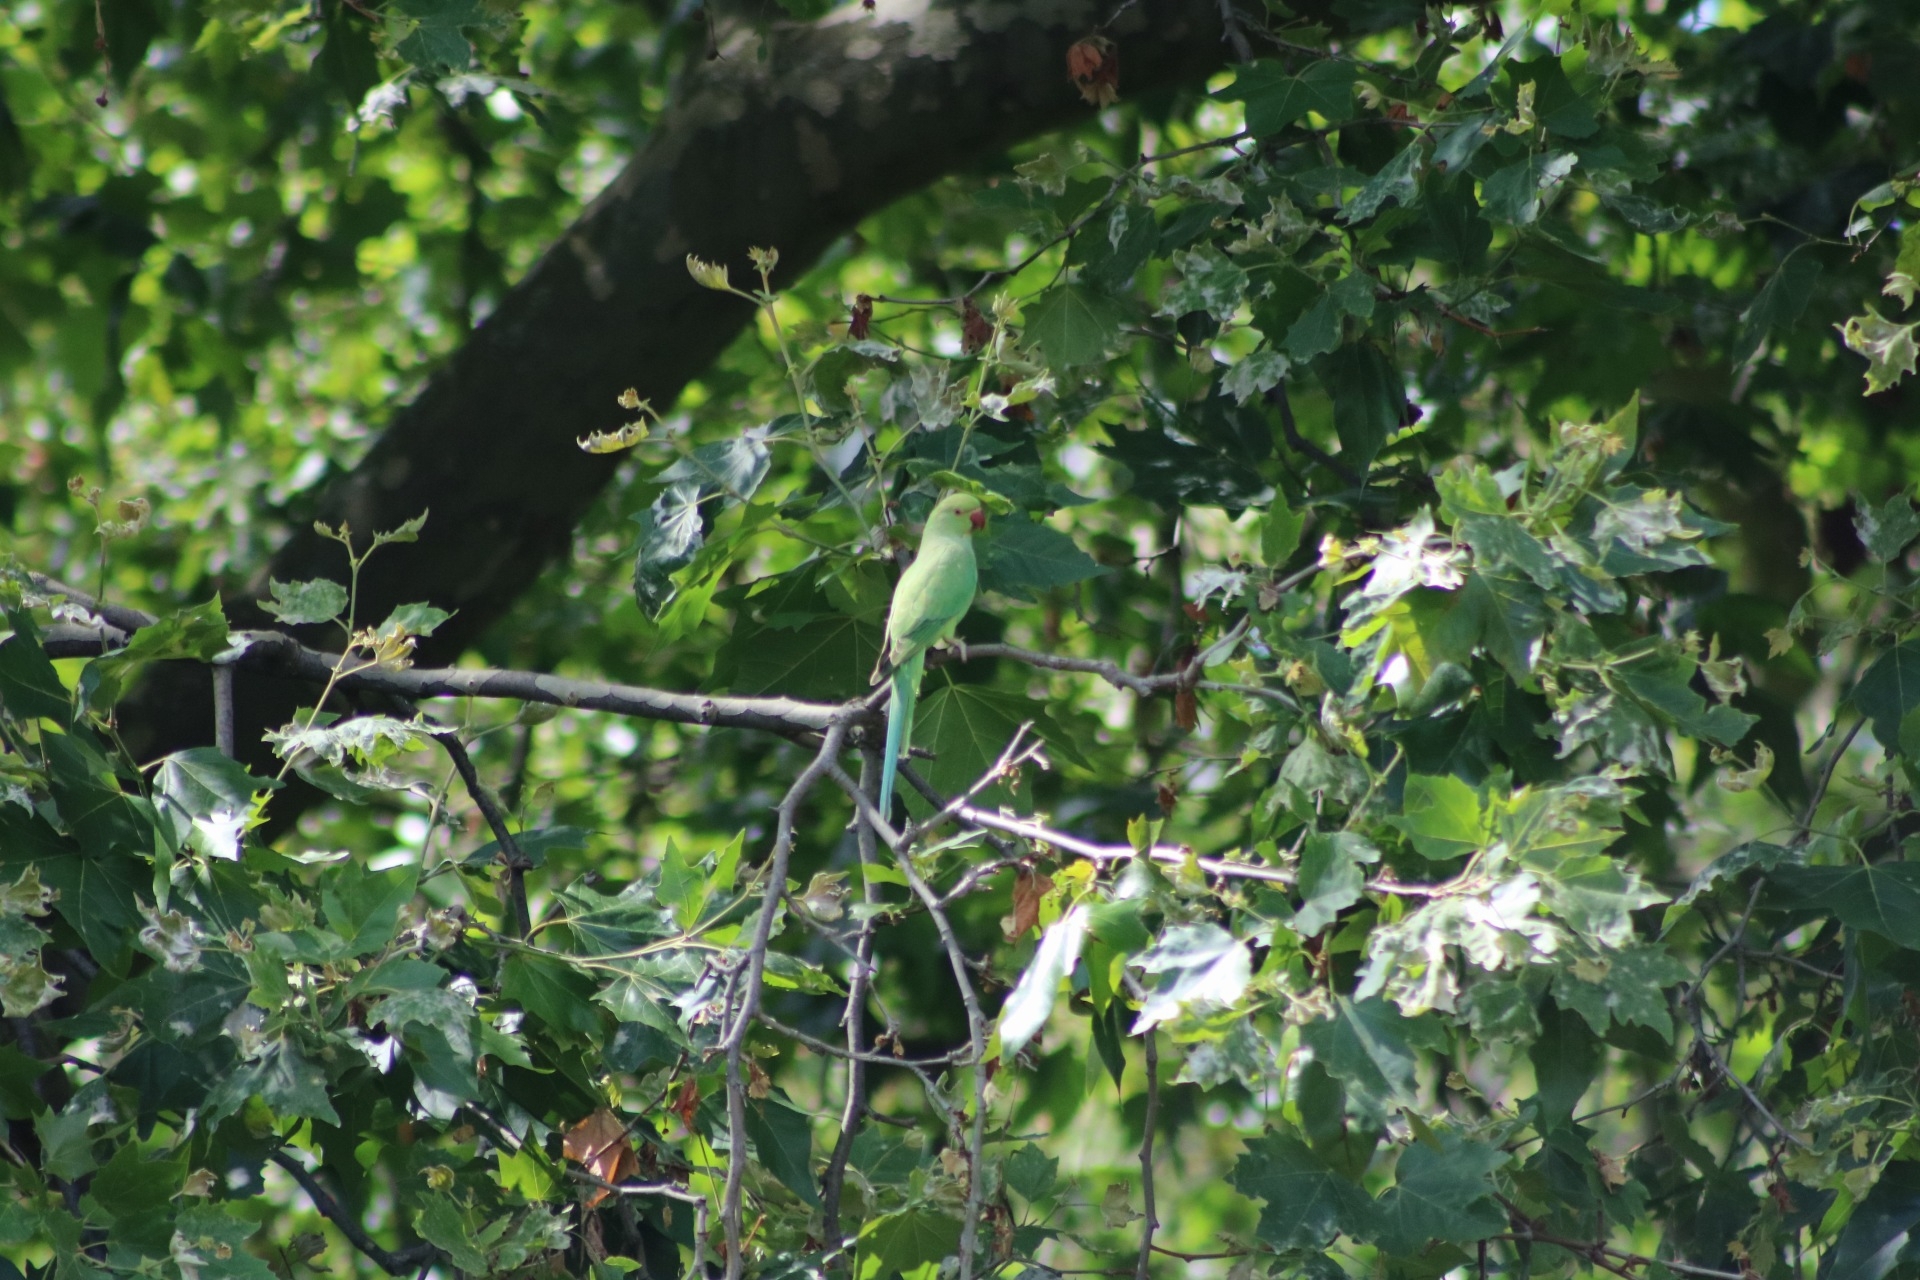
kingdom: Animalia
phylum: Chordata
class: Aves
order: Psittaciformes
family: Psittacidae
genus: Psittacula
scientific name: Psittacula krameri
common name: Rose-ringed parakeet
